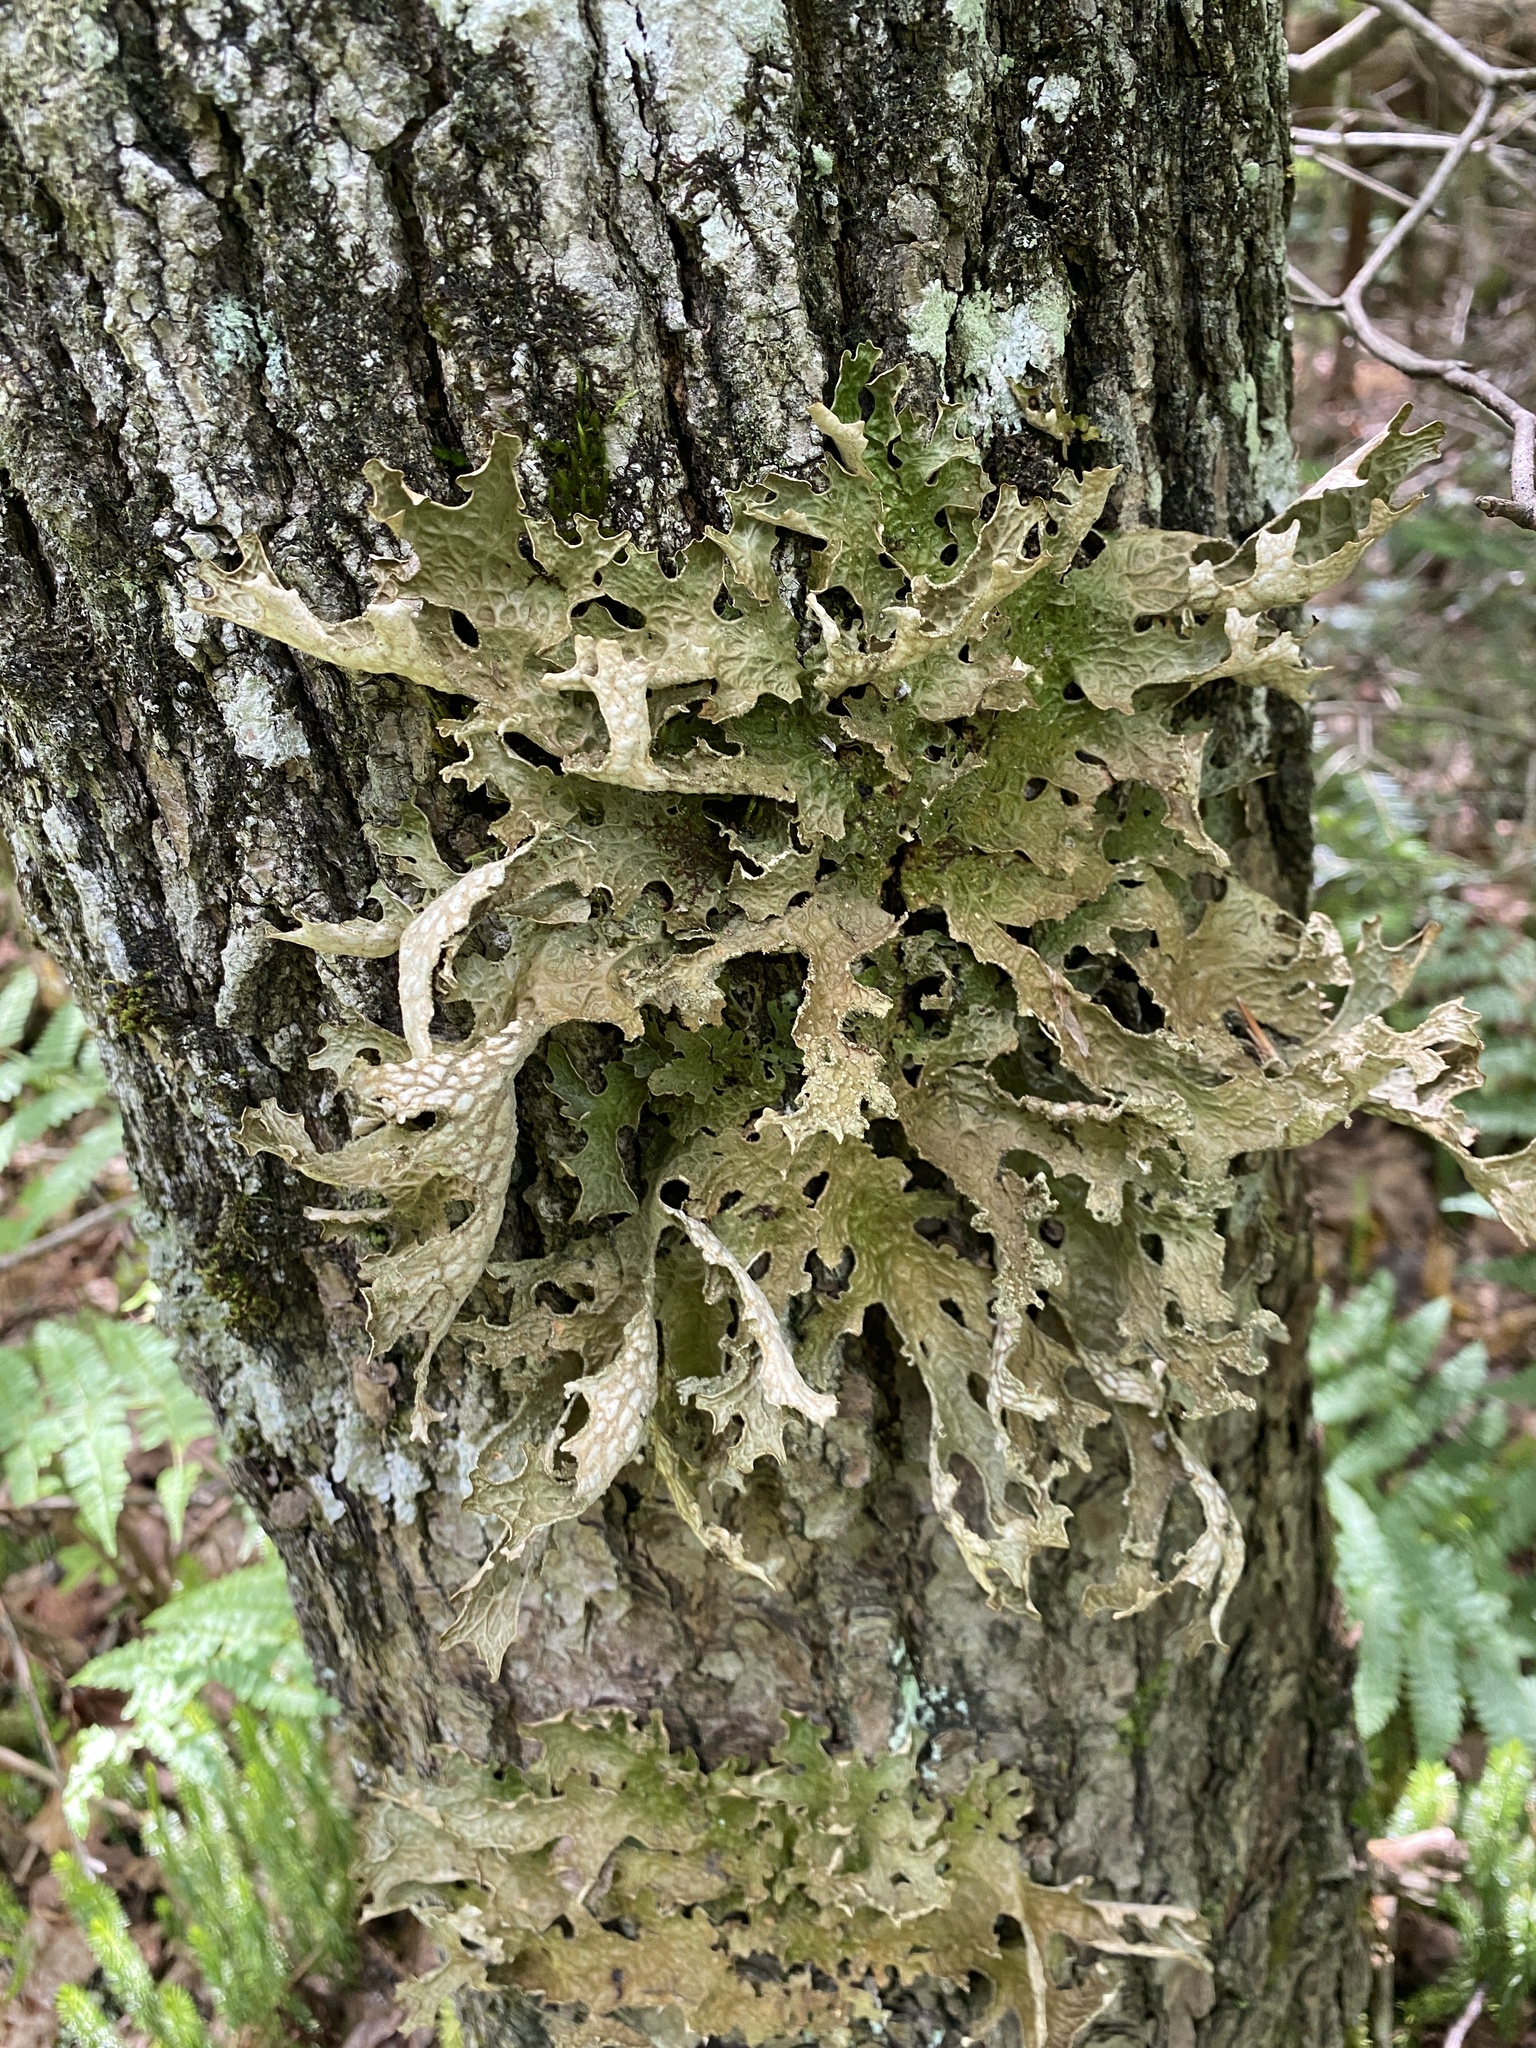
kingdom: Fungi
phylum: Ascomycota
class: Lecanoromycetes
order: Peltigerales
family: Lobariaceae
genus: Lobaria
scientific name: Lobaria pulmonaria
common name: Lungwort
